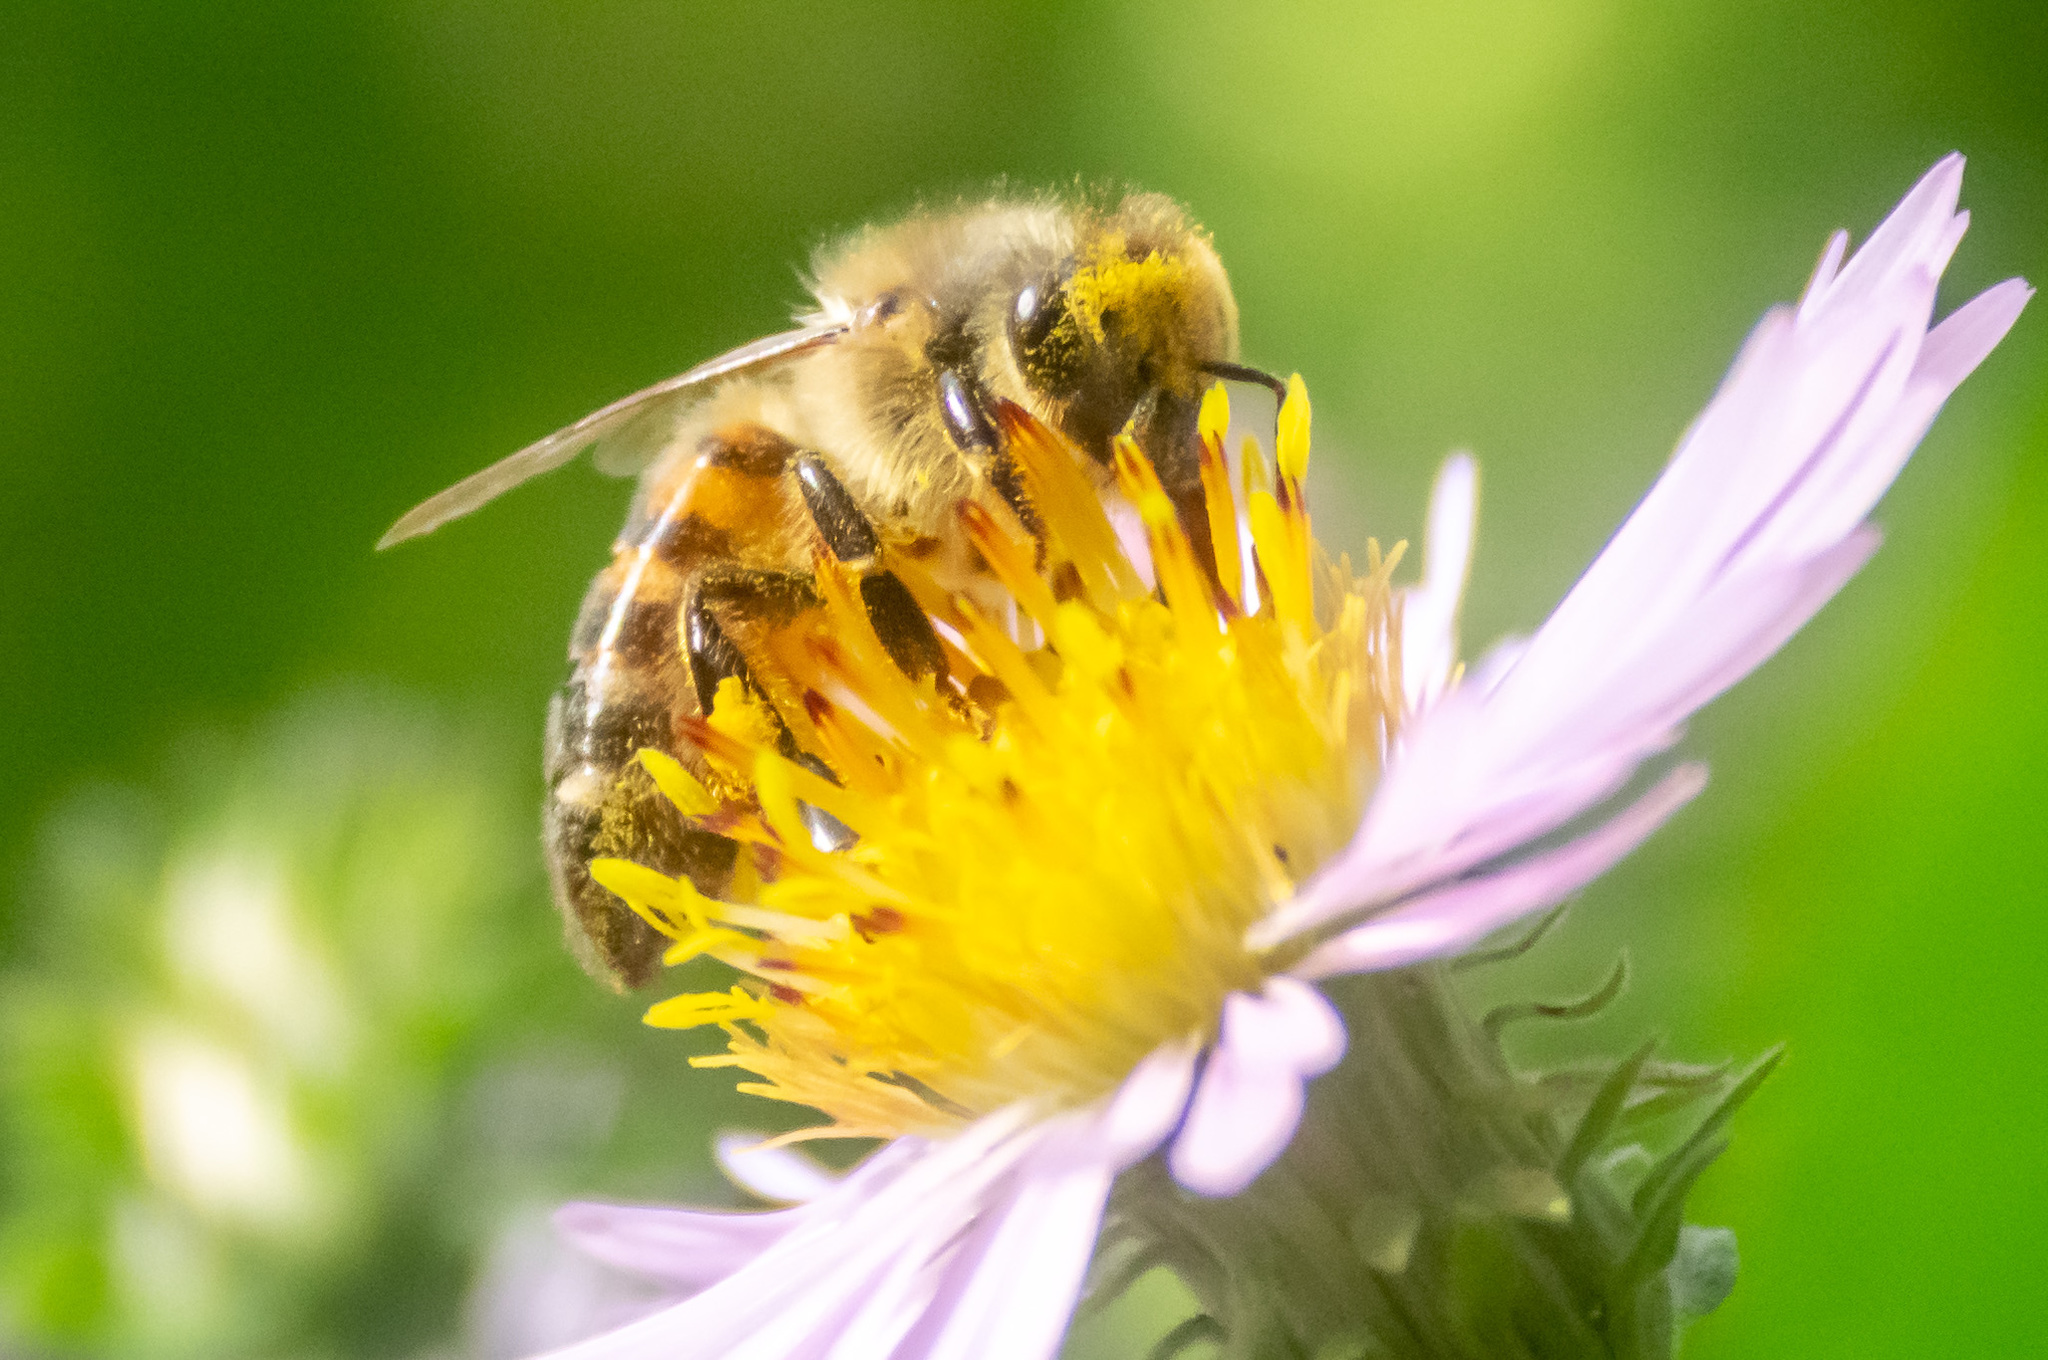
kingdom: Animalia
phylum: Arthropoda
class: Insecta
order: Hymenoptera
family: Apidae
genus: Apis
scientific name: Apis mellifera
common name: Honey bee
